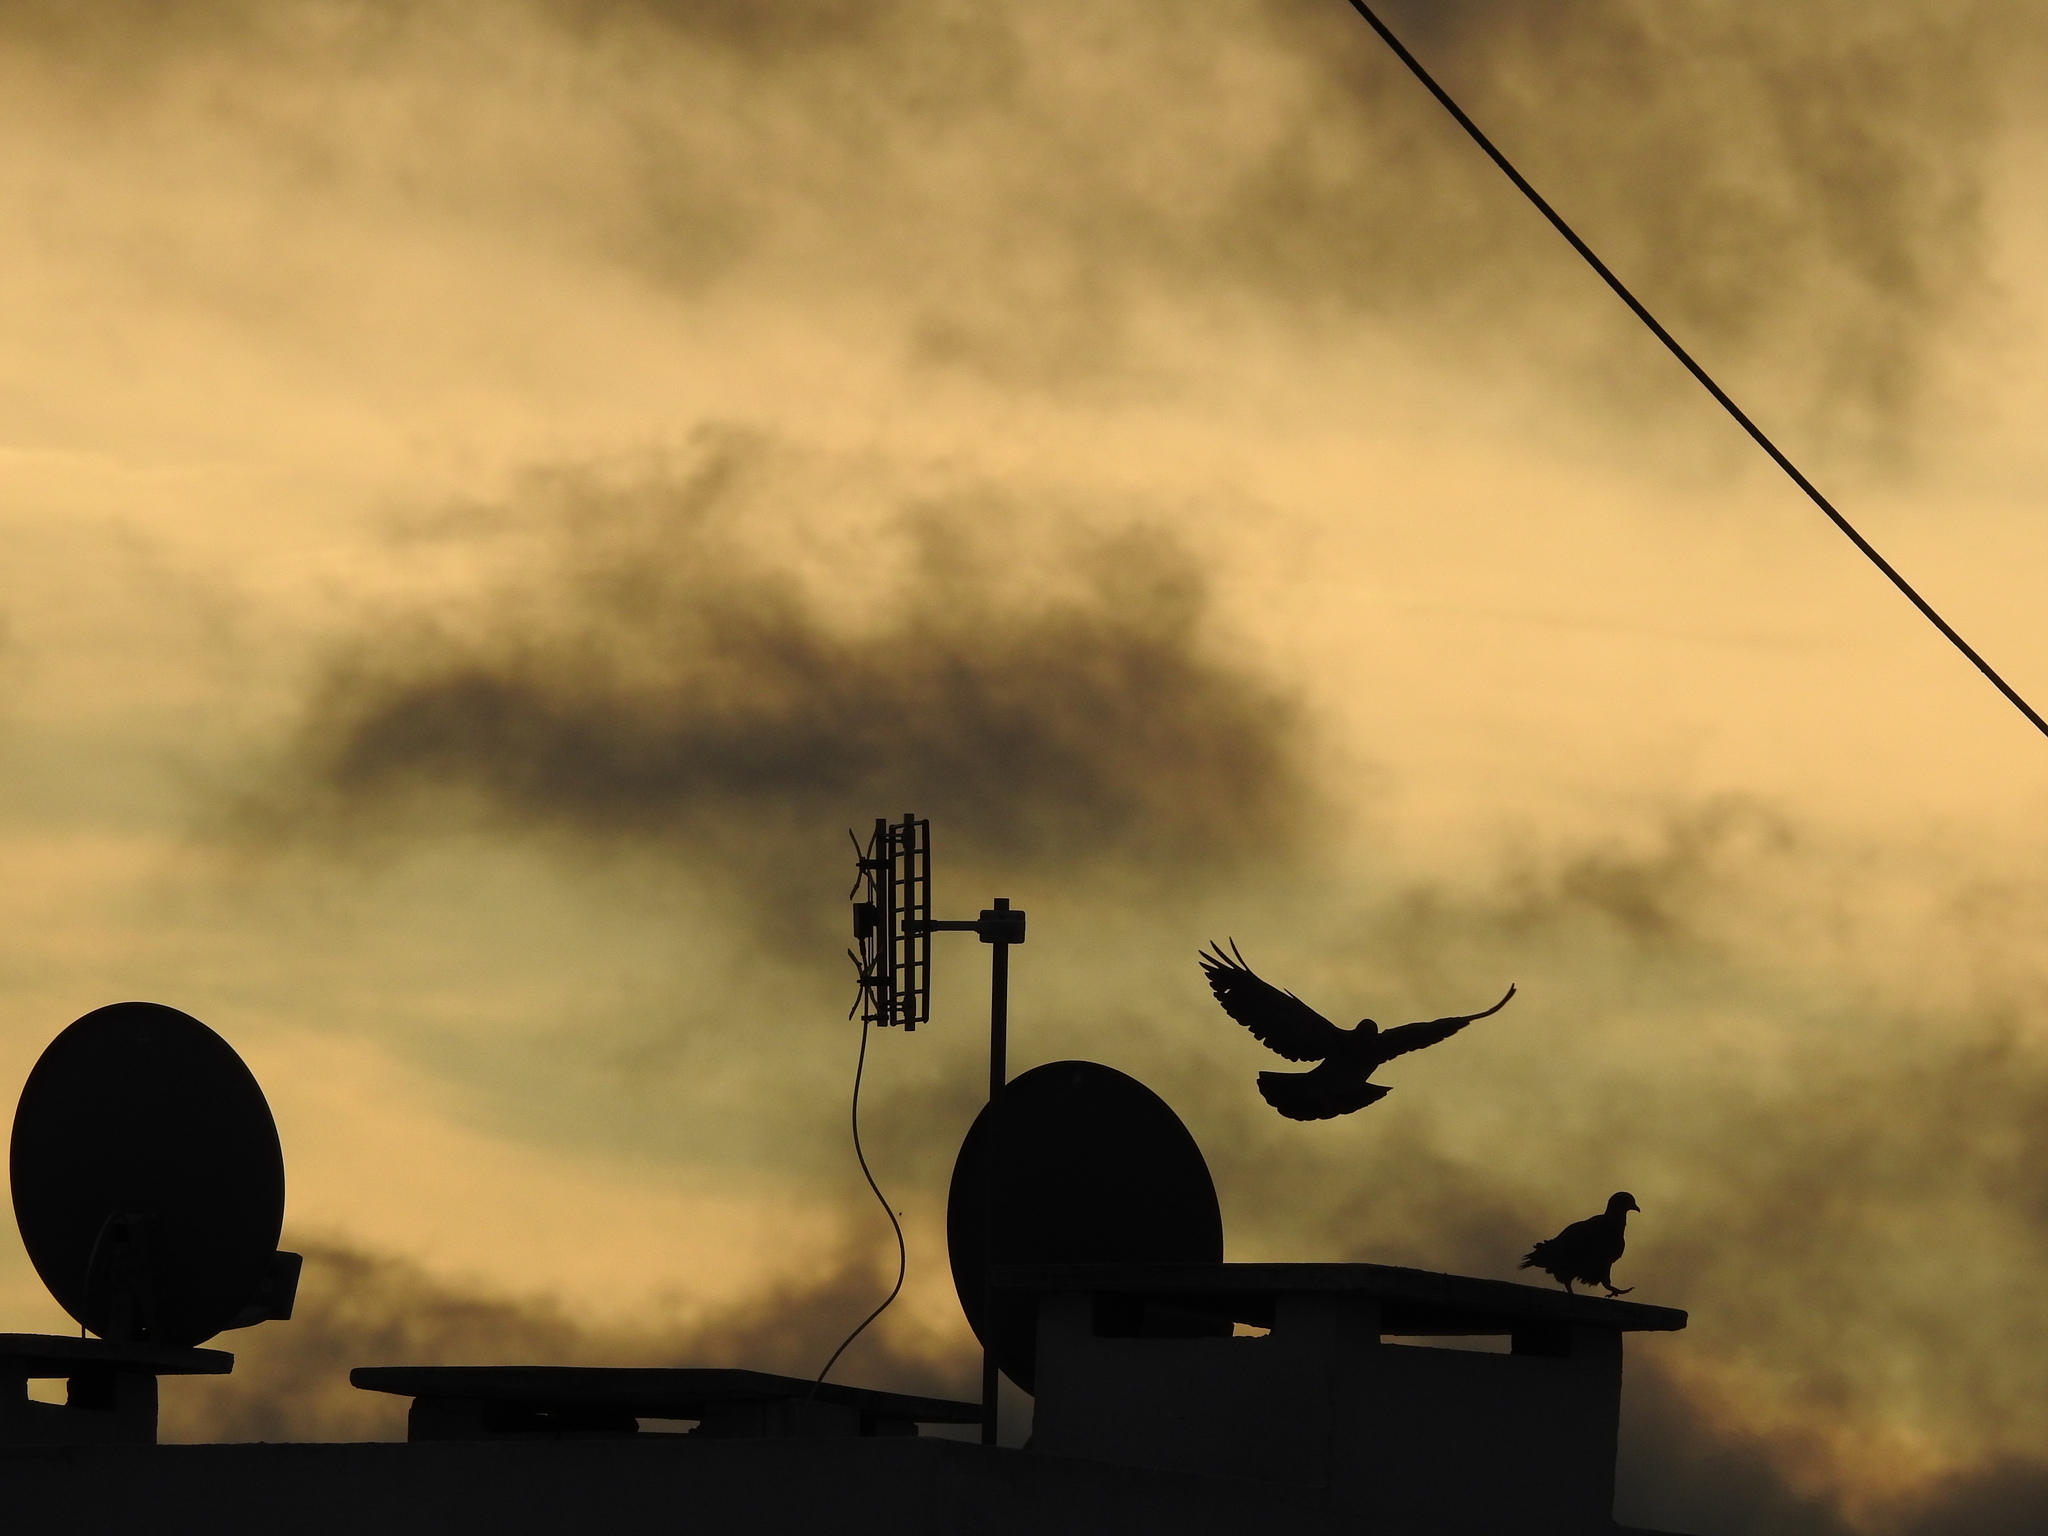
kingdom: Animalia
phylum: Chordata
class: Aves
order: Columbiformes
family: Columbidae
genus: Columba
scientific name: Columba livia
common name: Rock pigeon
